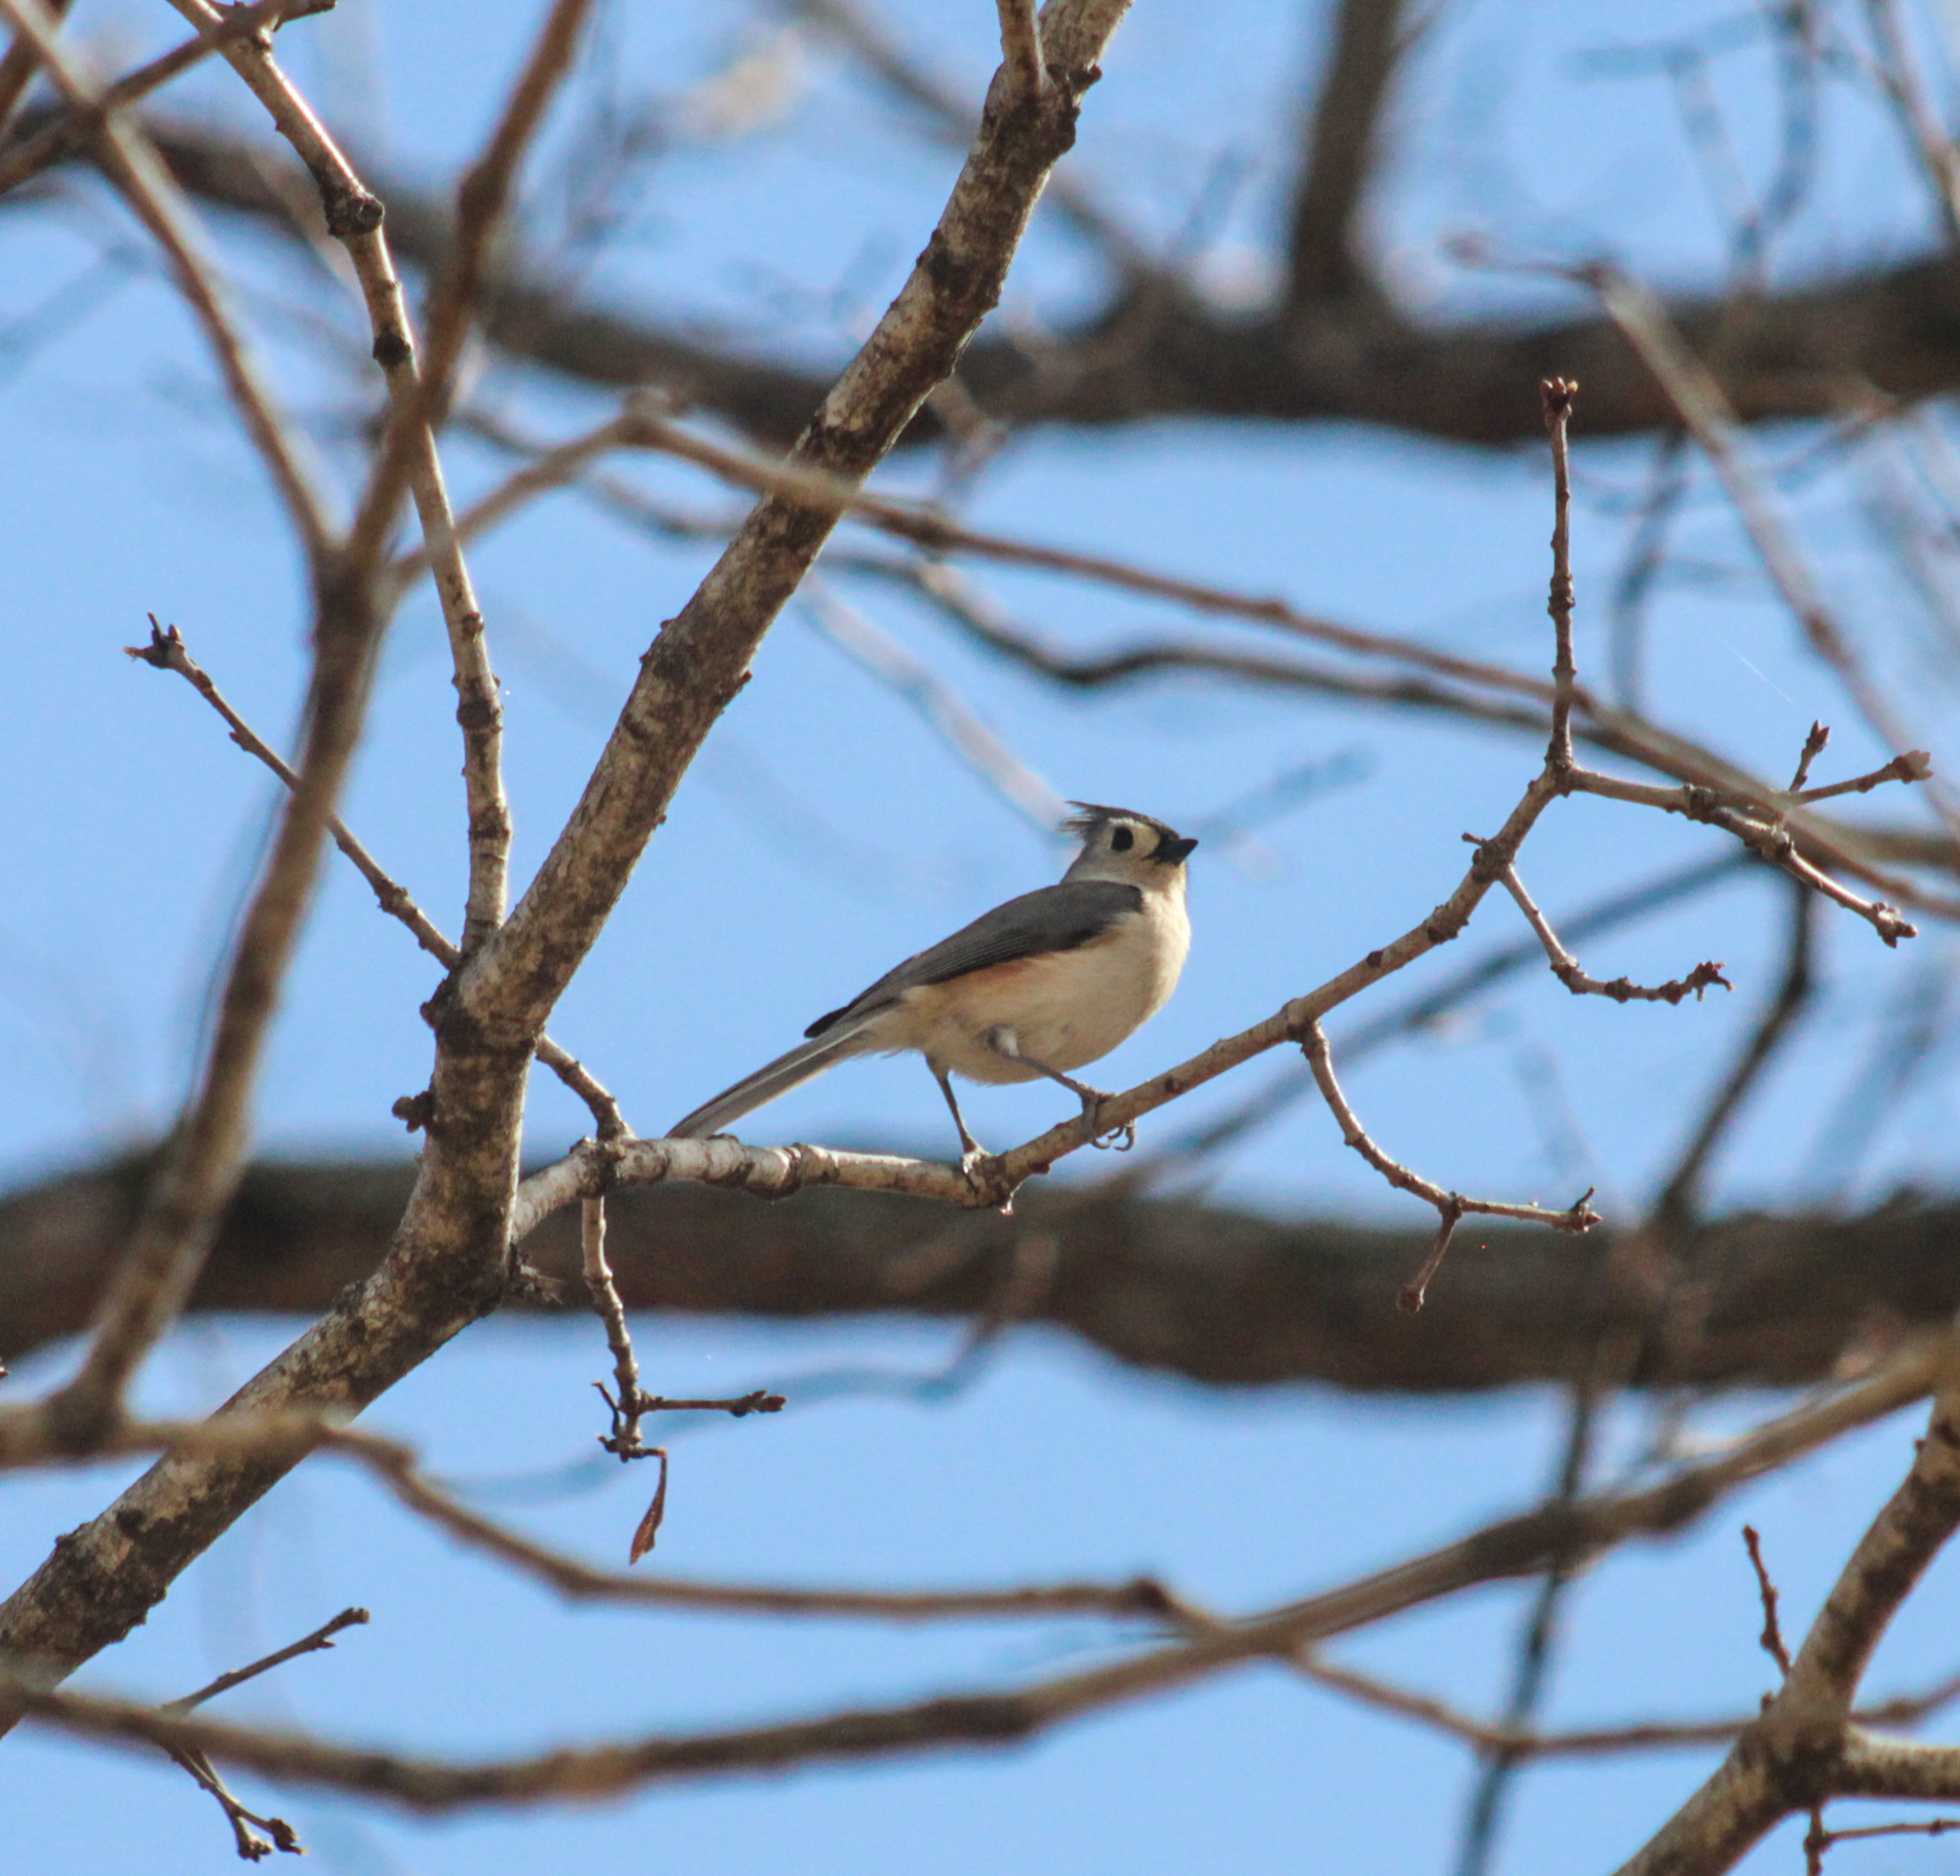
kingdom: Animalia
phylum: Chordata
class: Aves
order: Passeriformes
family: Paridae
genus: Baeolophus
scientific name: Baeolophus bicolor
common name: Tufted titmouse
